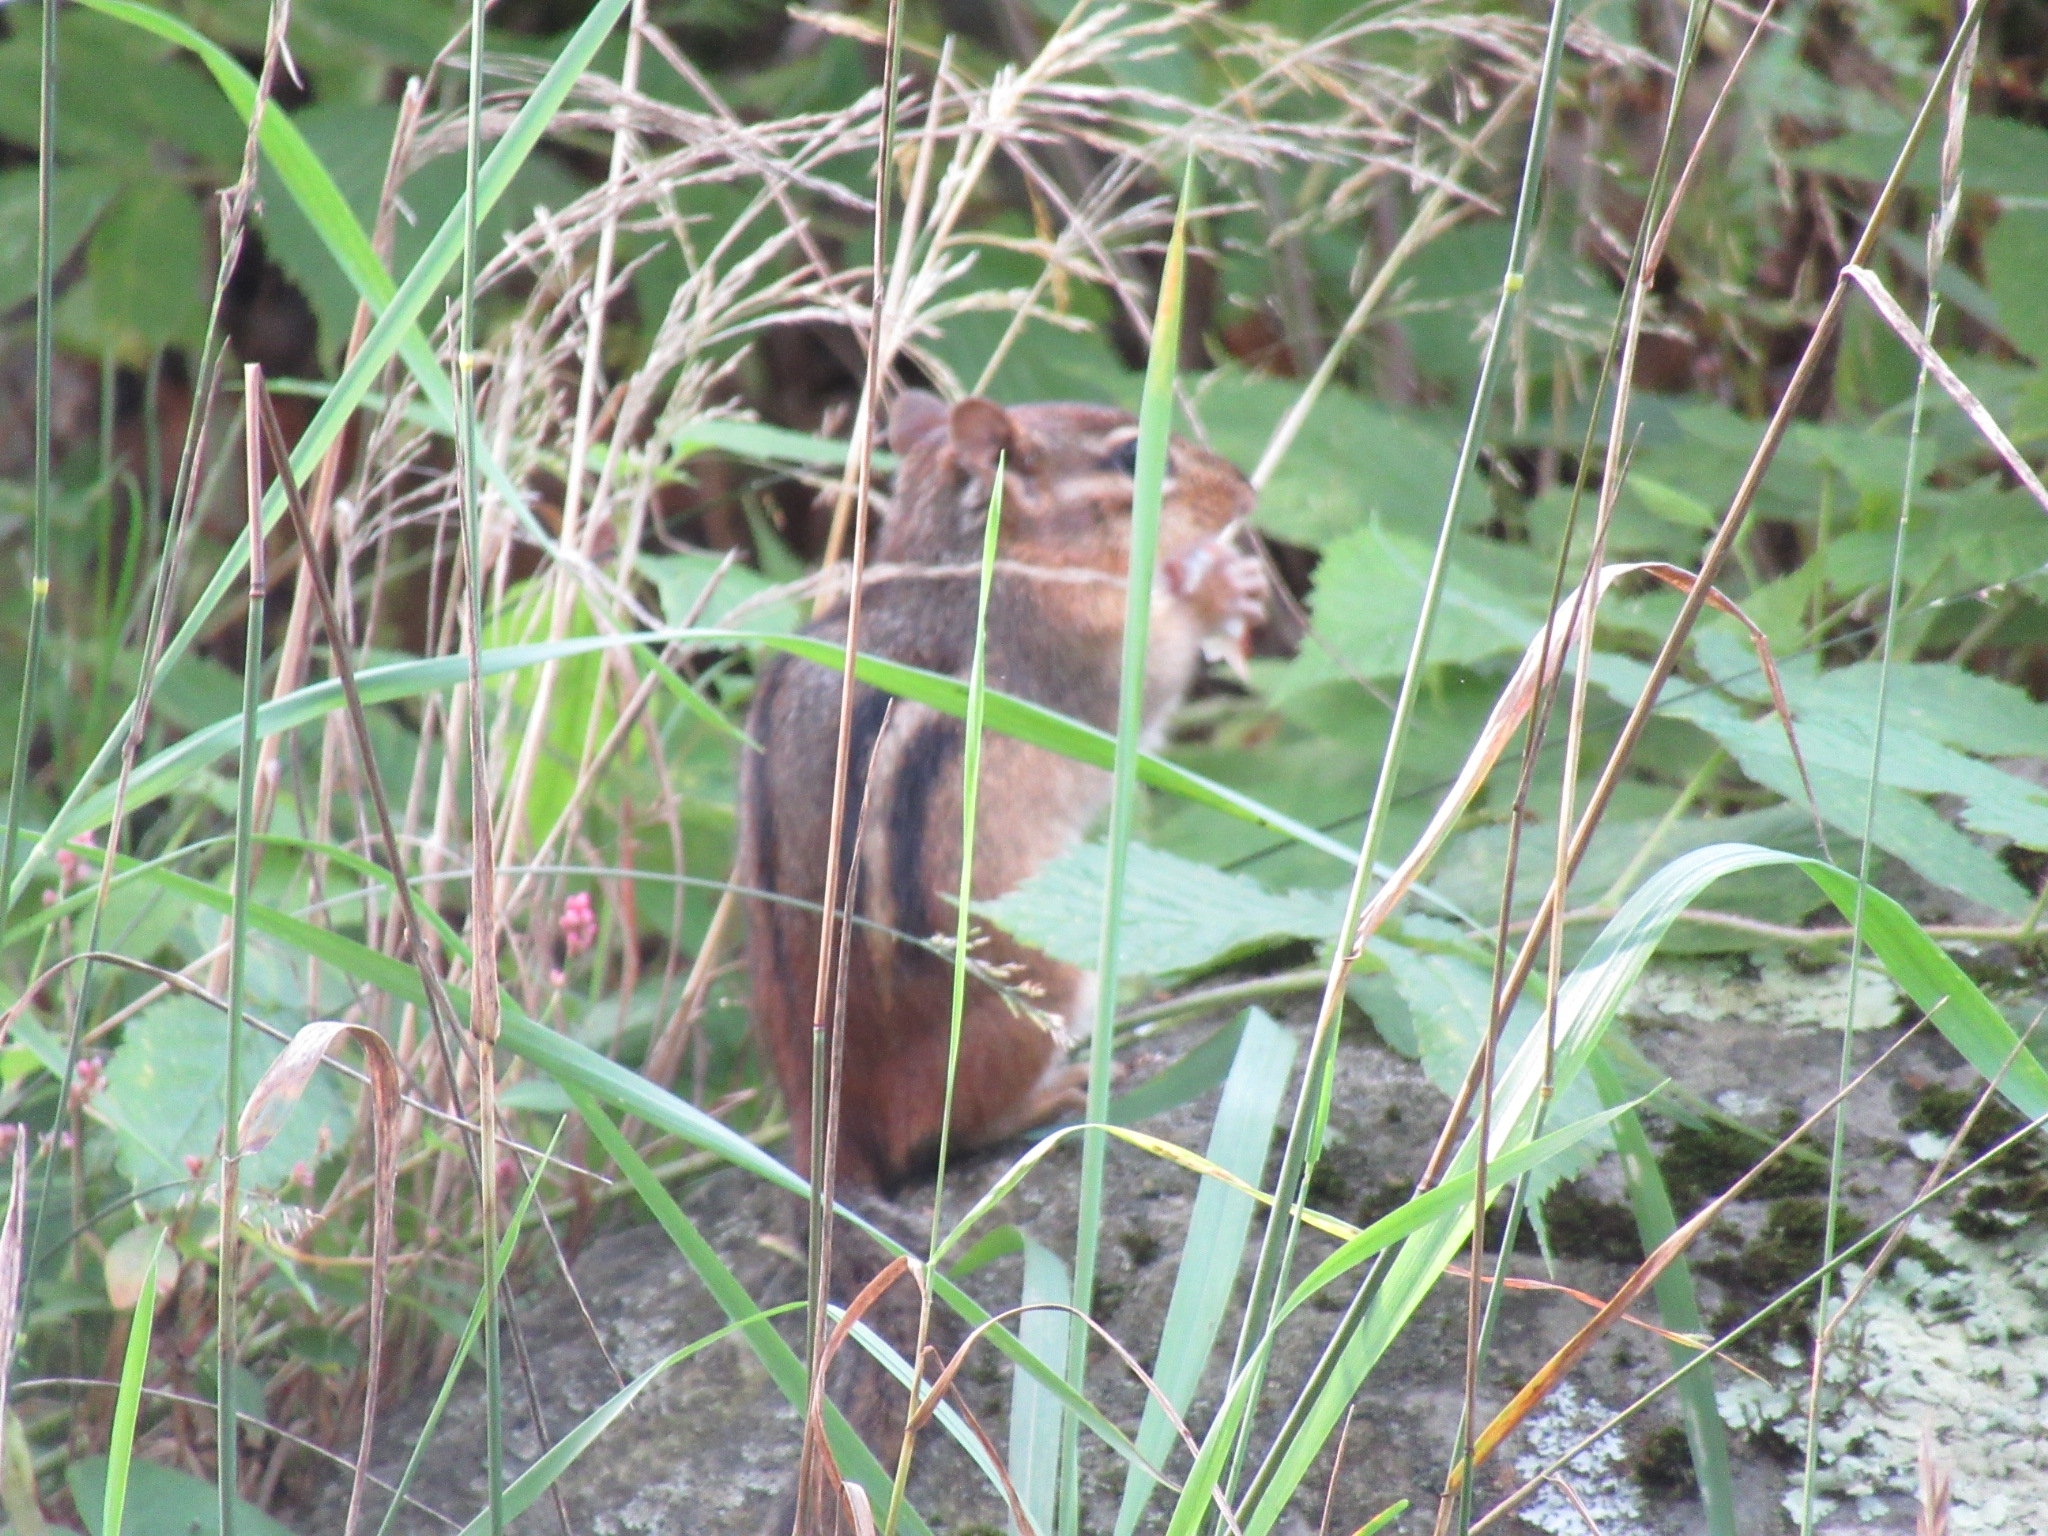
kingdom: Animalia
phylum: Chordata
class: Mammalia
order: Rodentia
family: Sciuridae
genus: Tamias
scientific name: Tamias striatus
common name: Eastern chipmunk
